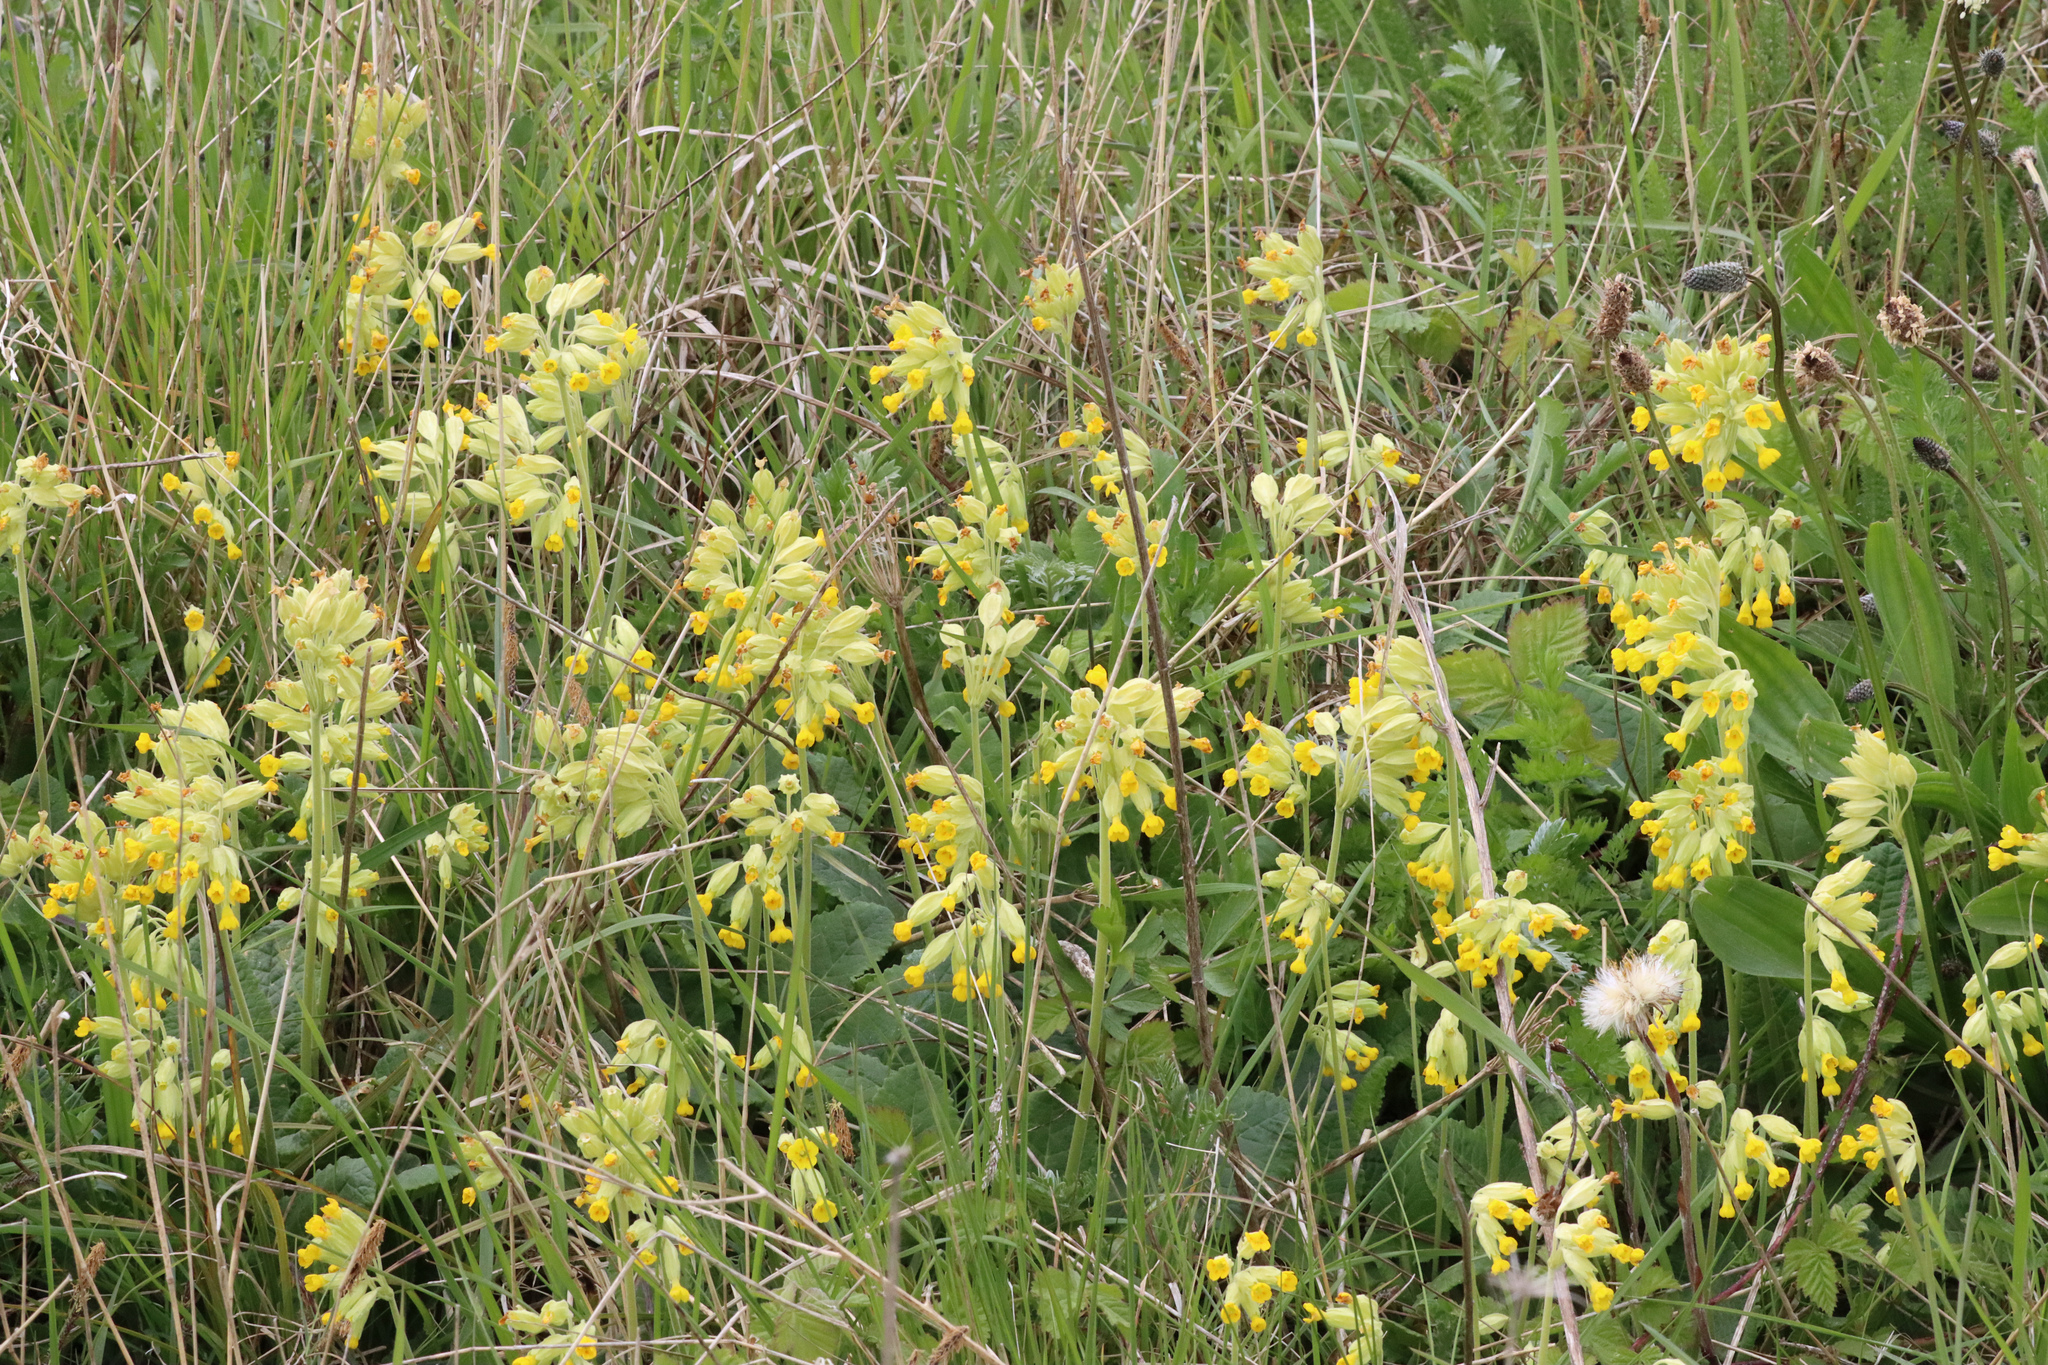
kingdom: Plantae
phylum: Tracheophyta
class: Magnoliopsida
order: Ericales
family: Primulaceae
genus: Primula
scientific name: Primula veris
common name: Cowslip
